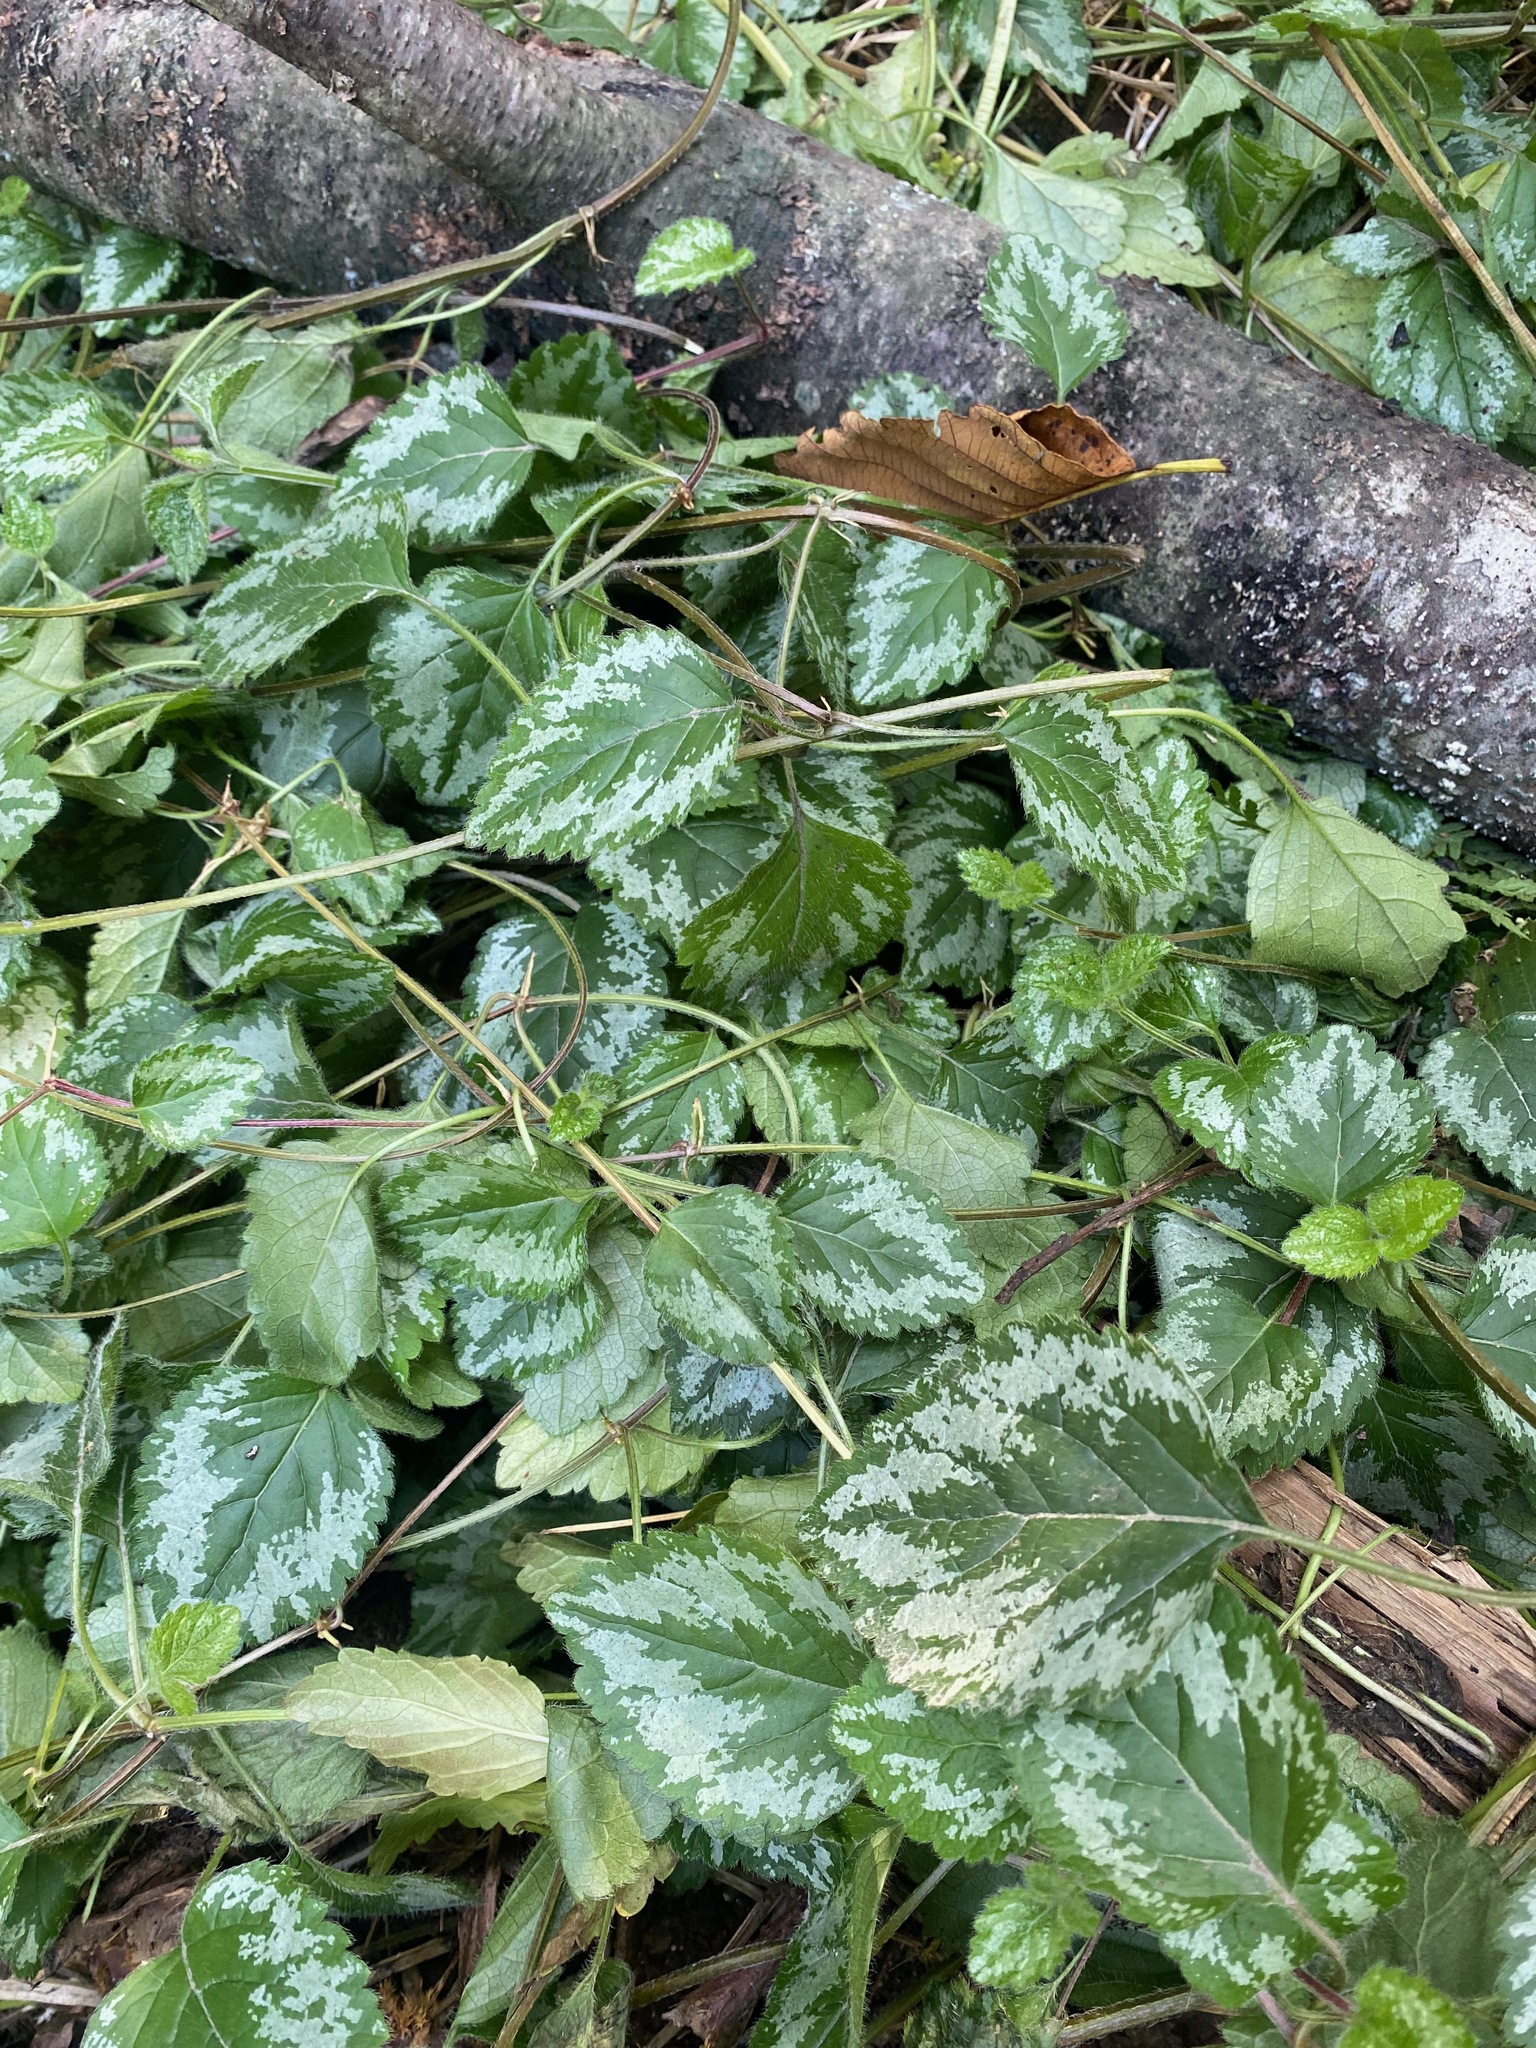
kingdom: Plantae
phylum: Tracheophyta
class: Magnoliopsida
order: Lamiales
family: Lamiaceae
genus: Lamium
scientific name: Lamium galeobdolon
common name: Yellow archangel
